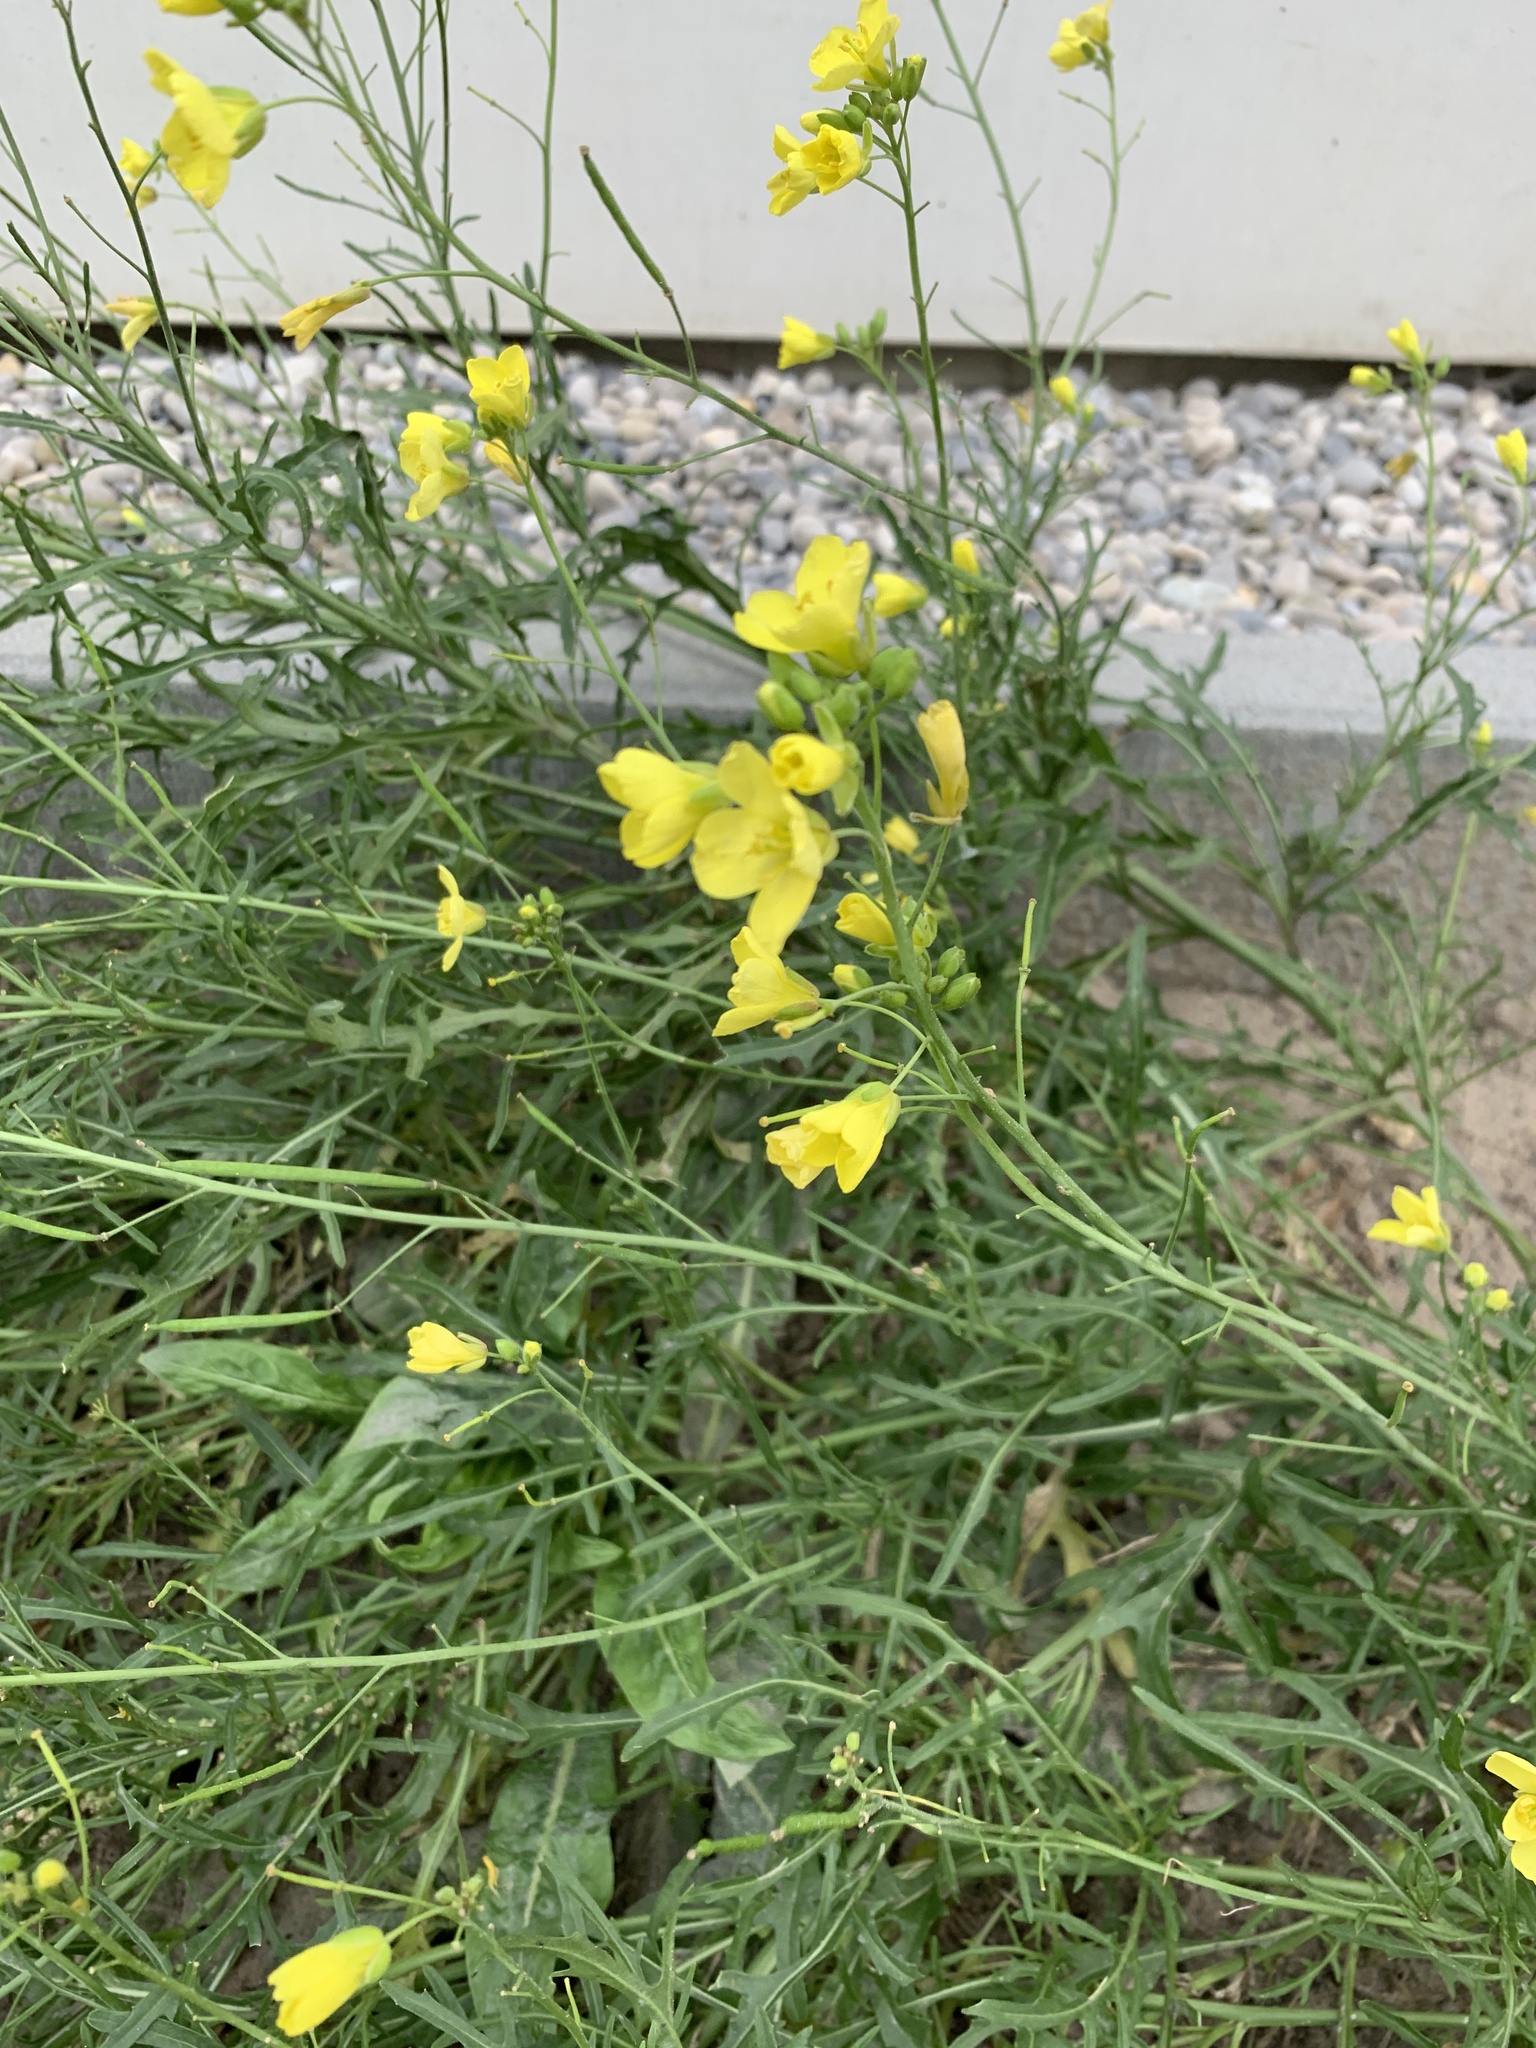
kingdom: Plantae
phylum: Tracheophyta
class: Magnoliopsida
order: Brassicales
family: Brassicaceae
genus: Diplotaxis
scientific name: Diplotaxis tenuifolia
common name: Perennial wall-rocket
